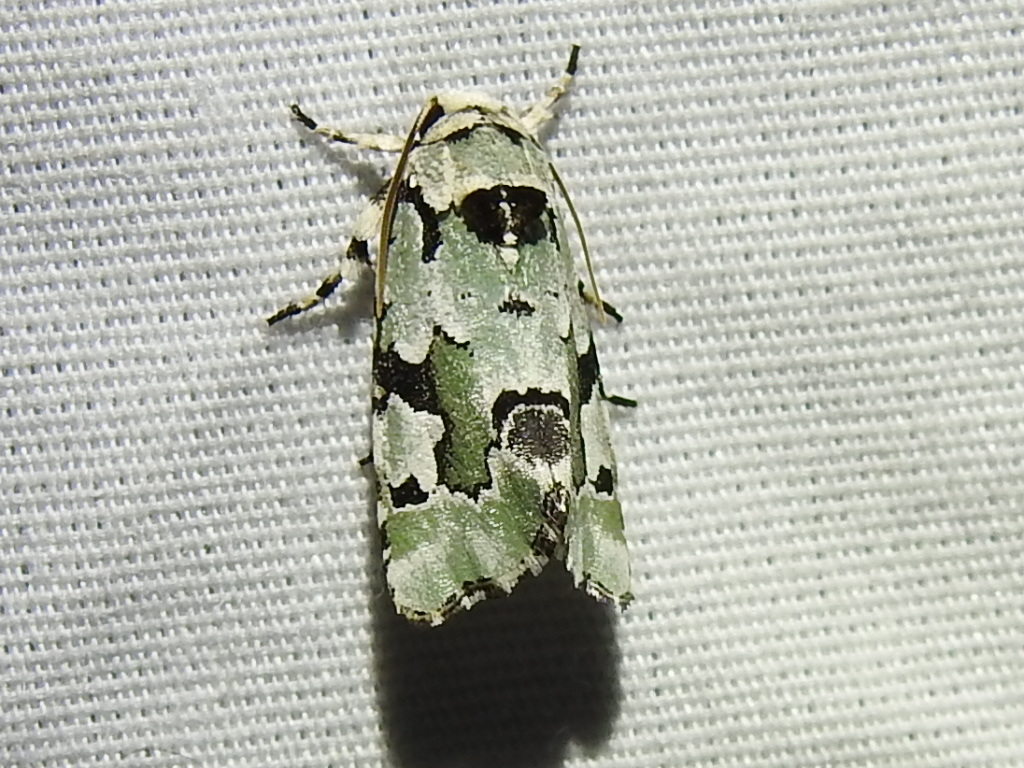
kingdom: Animalia
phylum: Arthropoda
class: Insecta
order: Lepidoptera
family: Noctuidae
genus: Emarginea
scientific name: Emarginea percara
